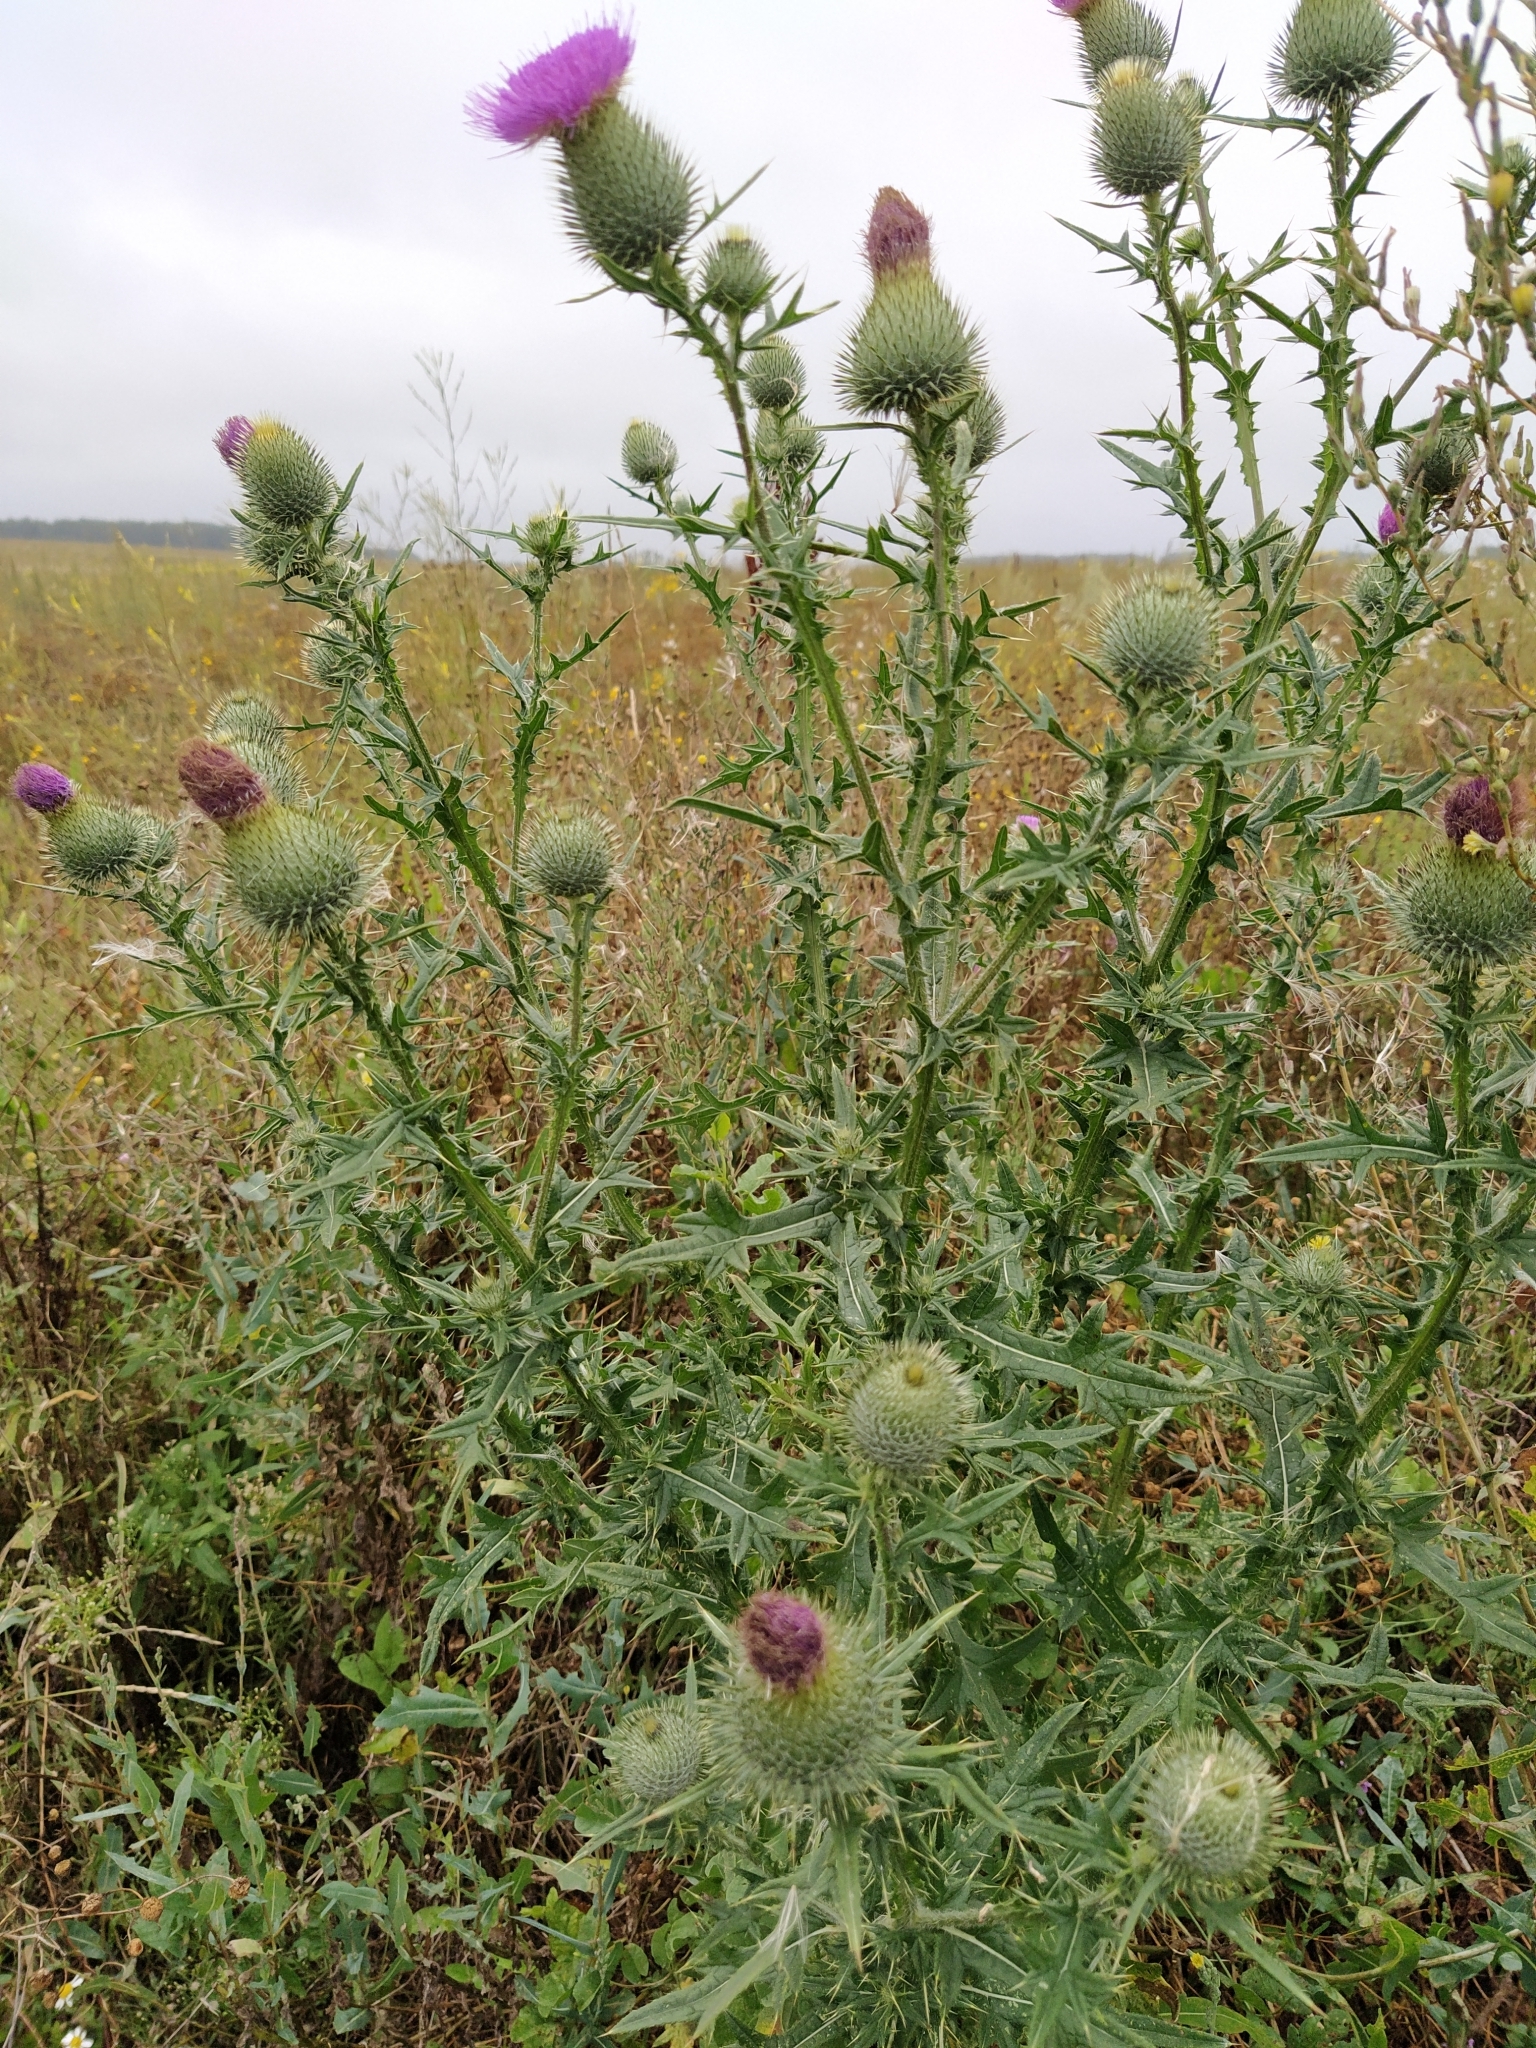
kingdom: Plantae
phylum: Tracheophyta
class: Magnoliopsida
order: Asterales
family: Asteraceae
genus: Cirsium
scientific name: Cirsium vulgare
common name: Bull thistle
